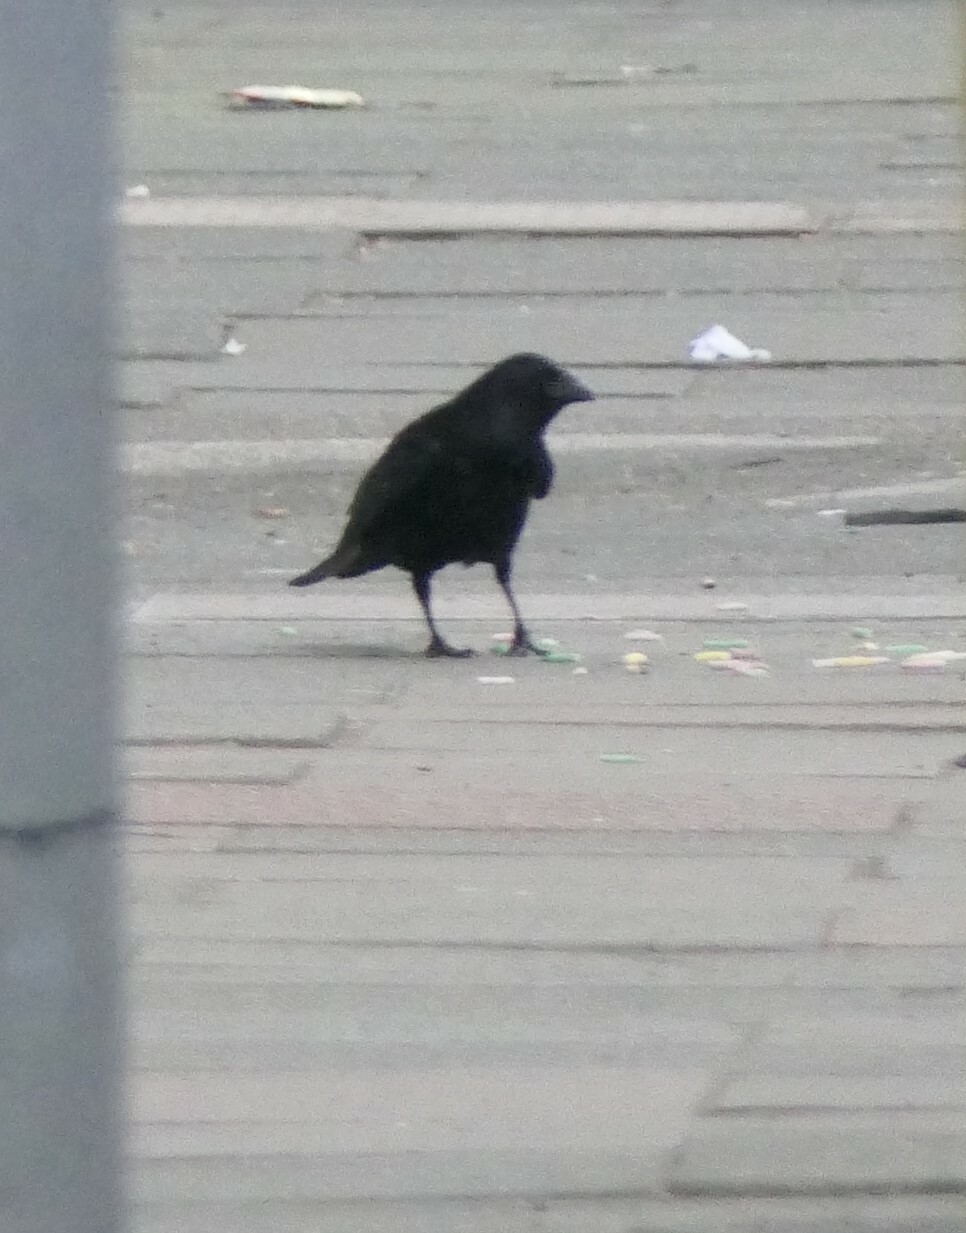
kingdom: Animalia
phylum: Chordata
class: Aves
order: Passeriformes
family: Corvidae
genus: Corvus
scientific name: Corvus corone
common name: Carrion crow
